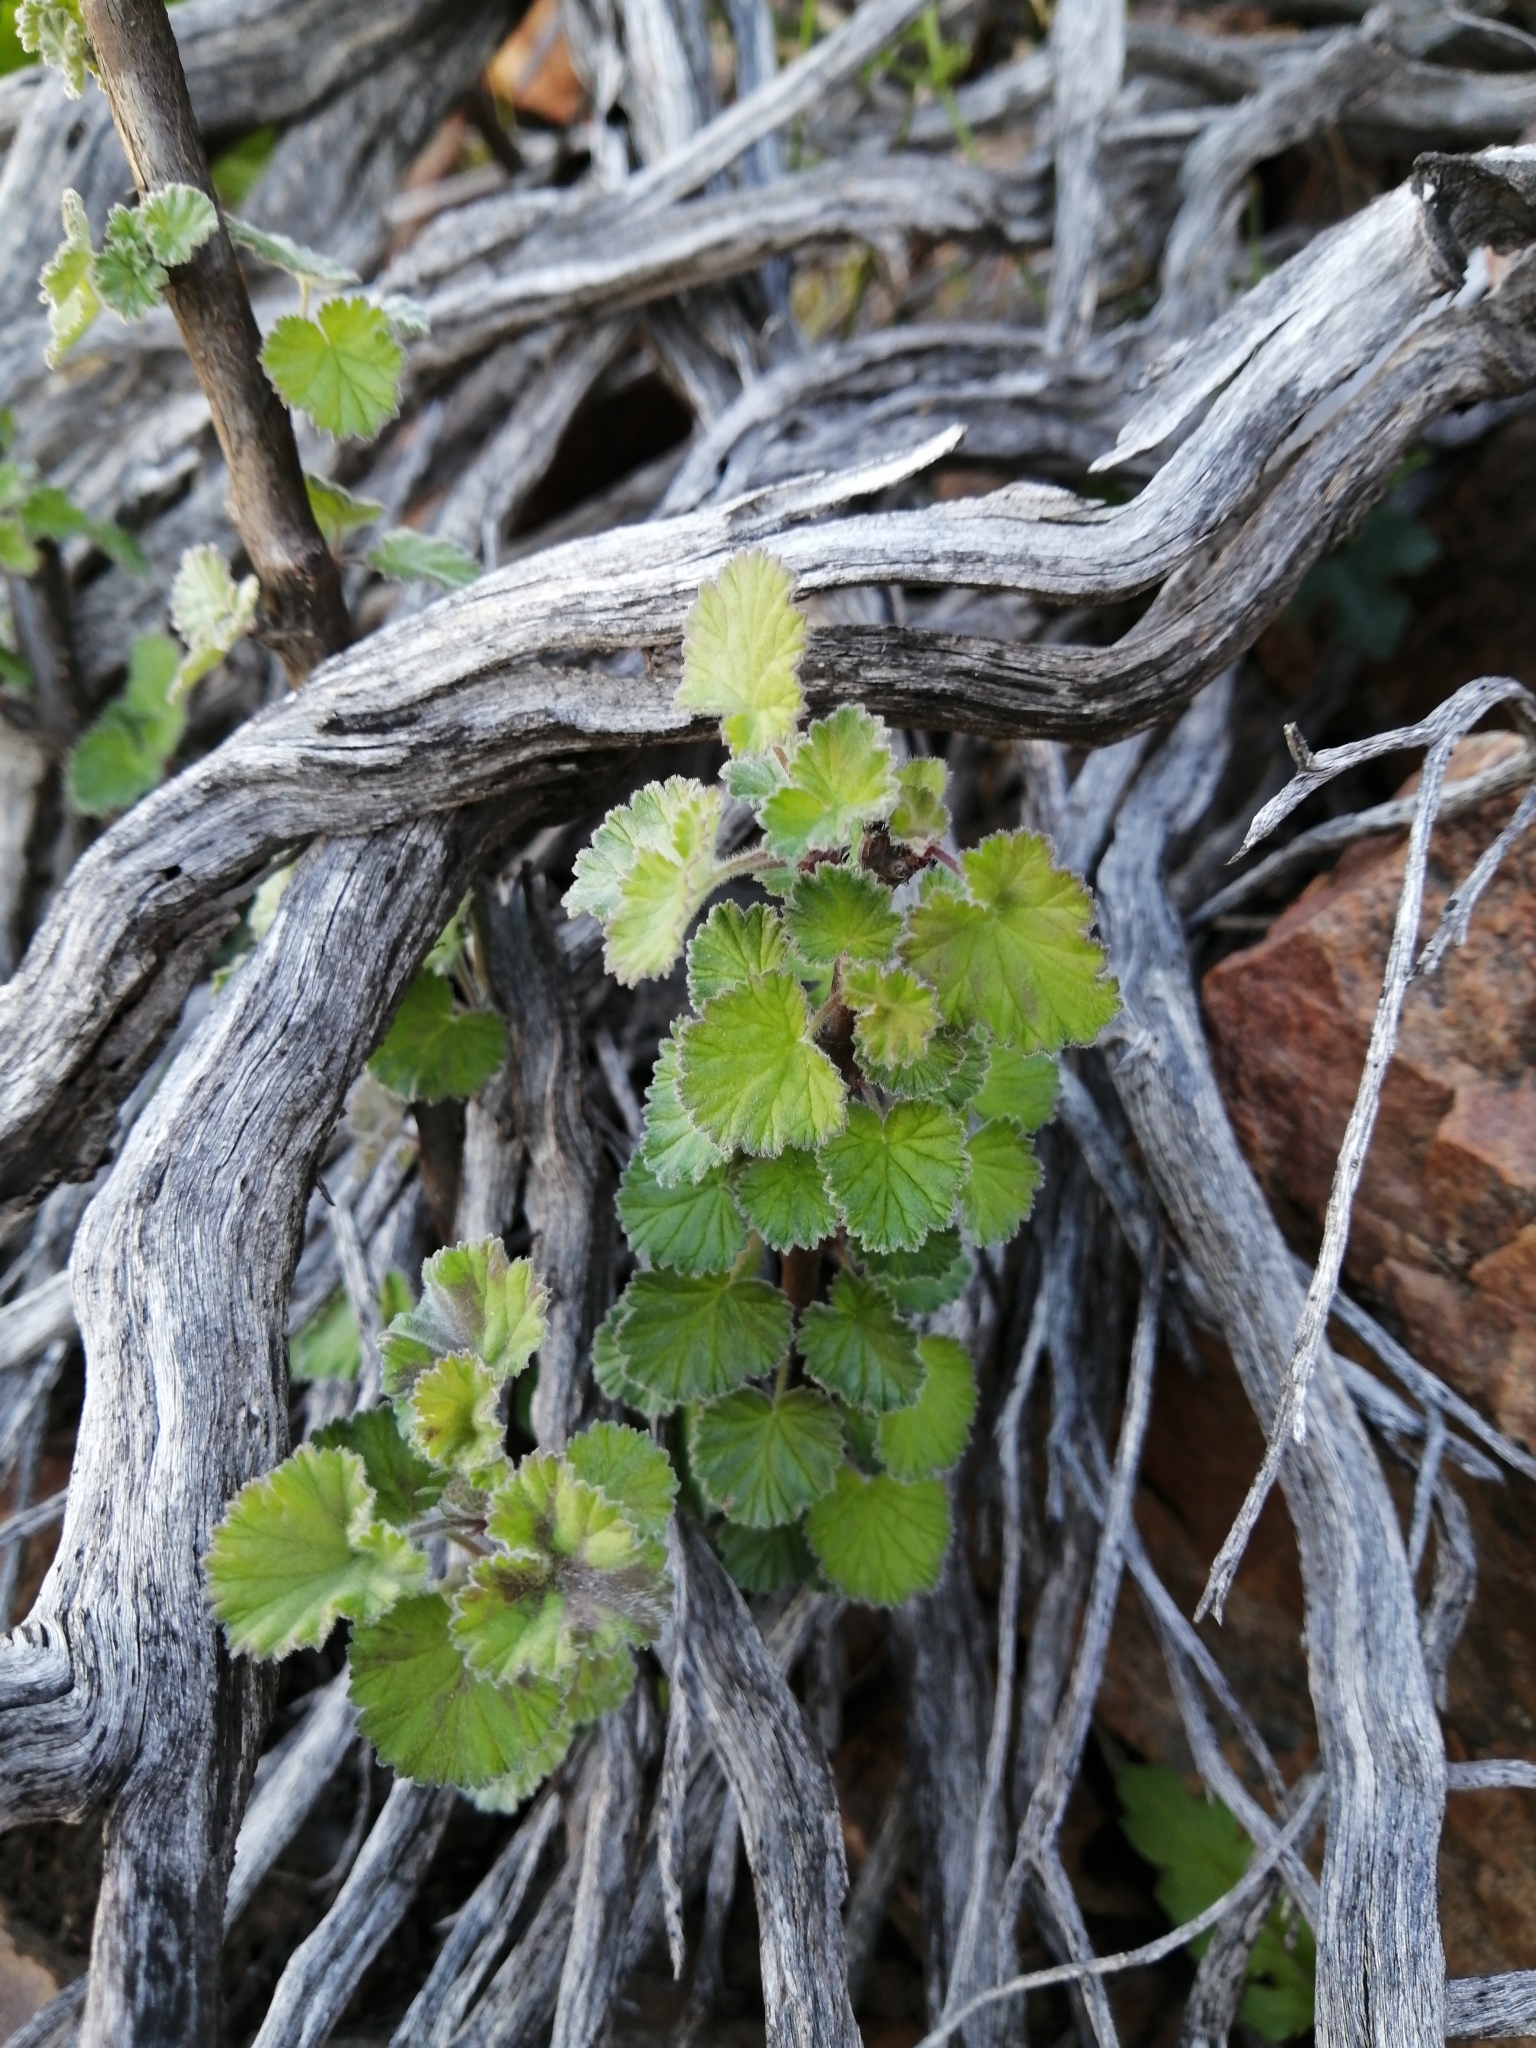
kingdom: Plantae
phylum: Tracheophyta
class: Magnoliopsida
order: Geraniales
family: Geraniaceae
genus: Pelargonium
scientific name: Pelargonium magenteum
